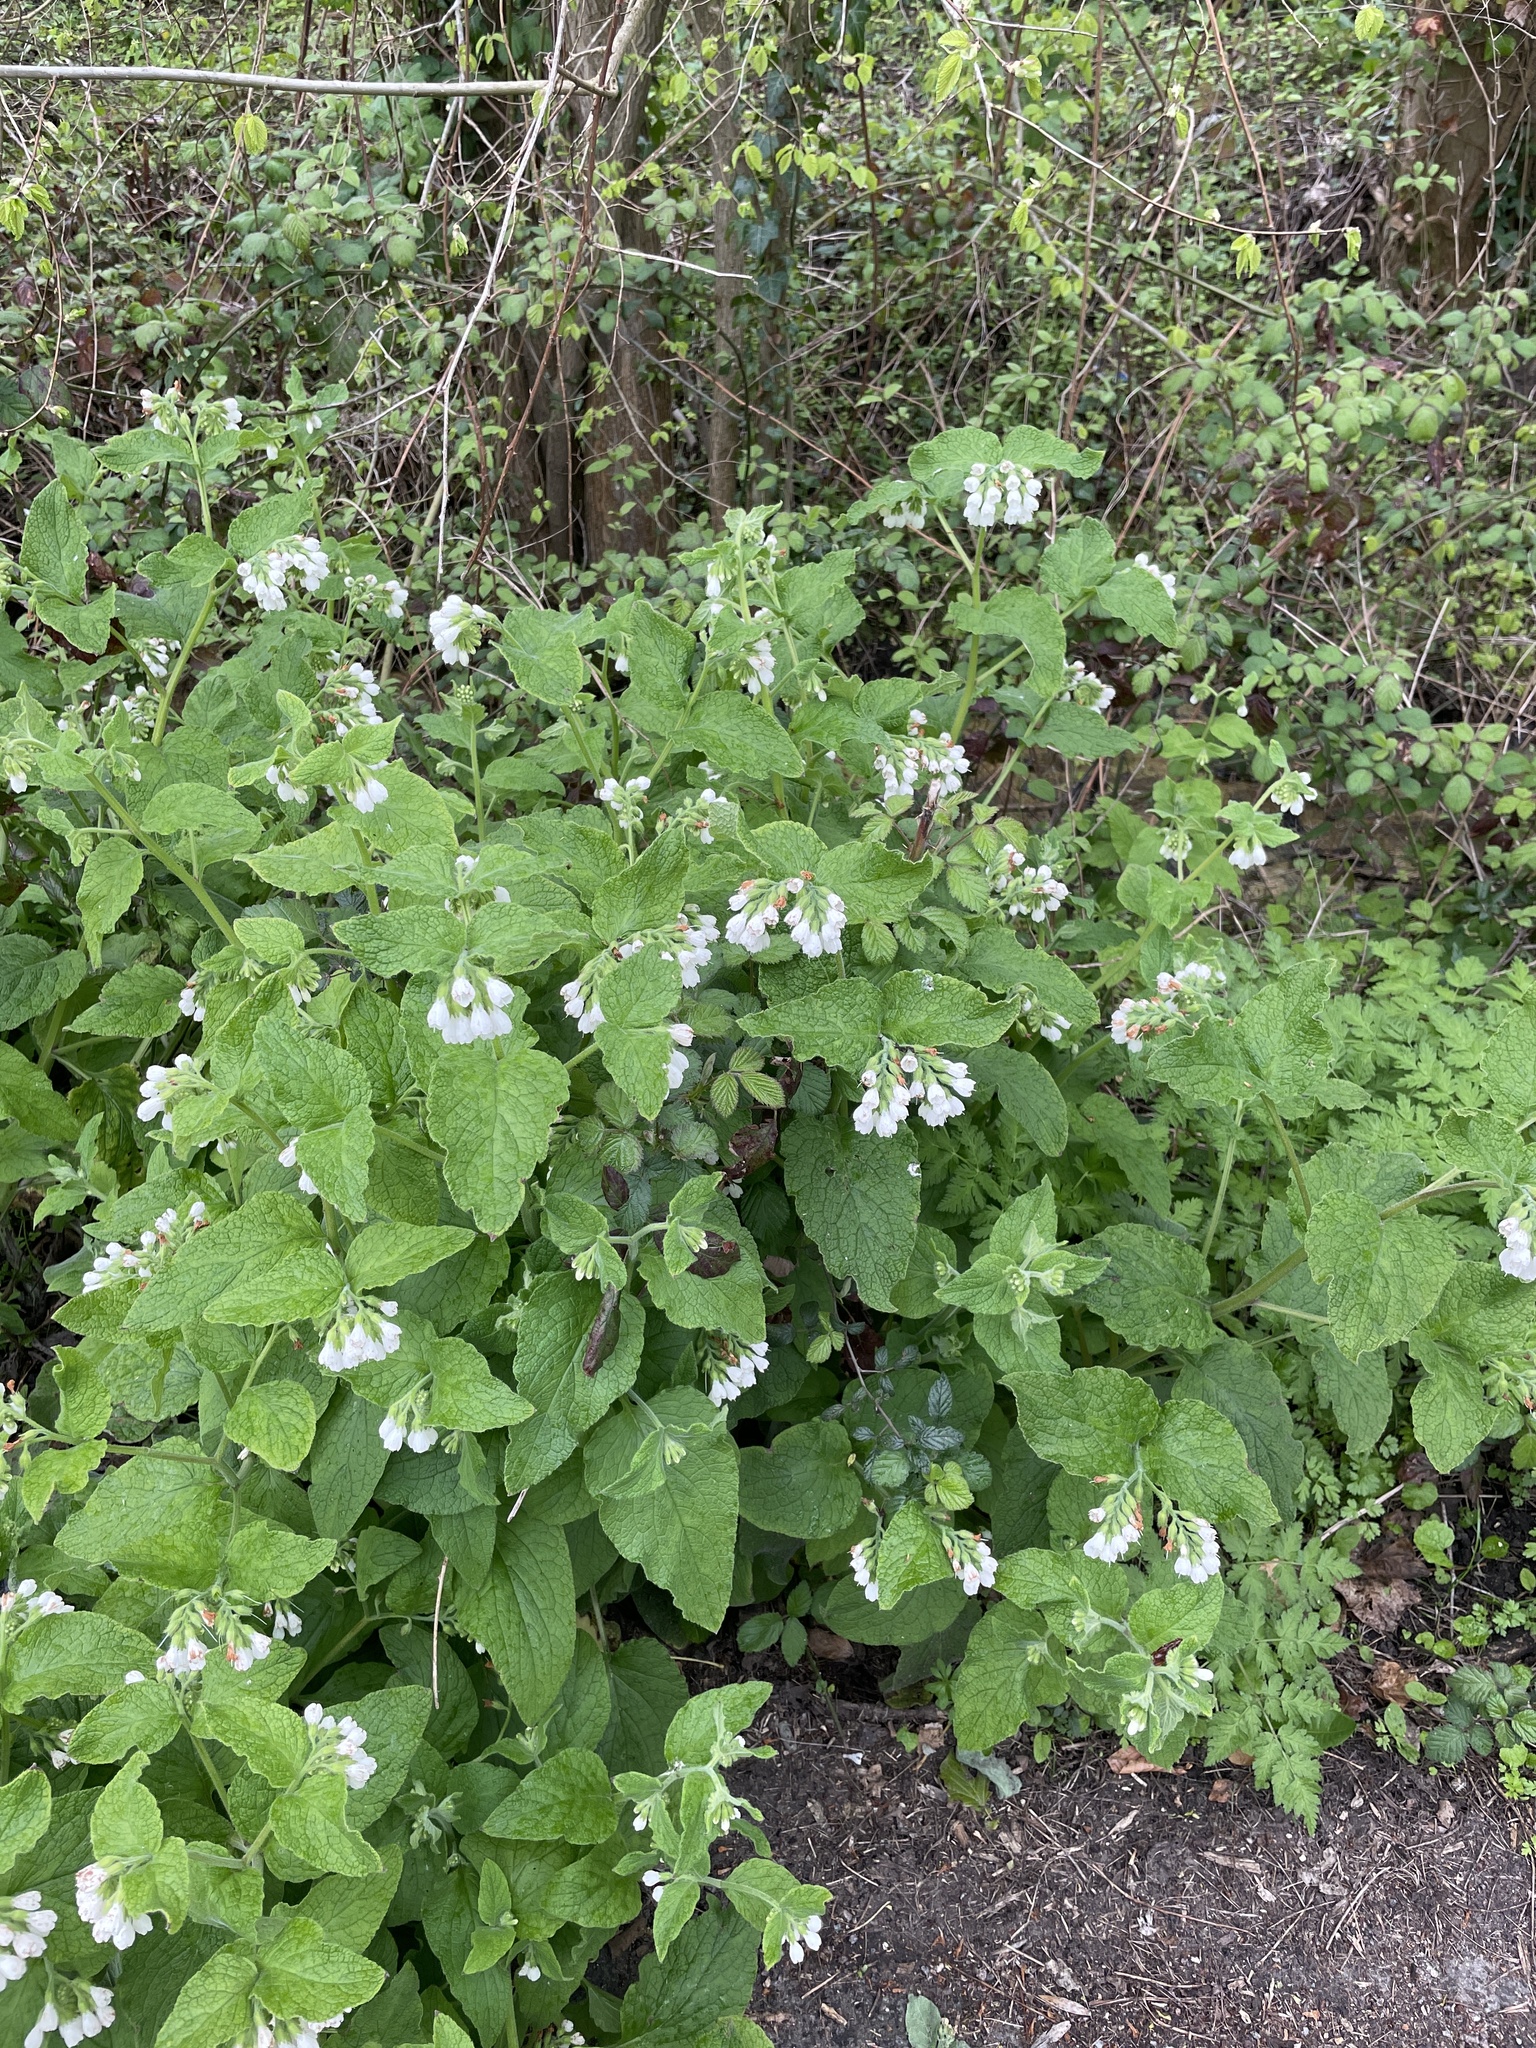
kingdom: Plantae
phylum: Tracheophyta
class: Magnoliopsida
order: Boraginales
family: Boraginaceae
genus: Symphytum
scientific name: Symphytum orientale
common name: White comfrey
